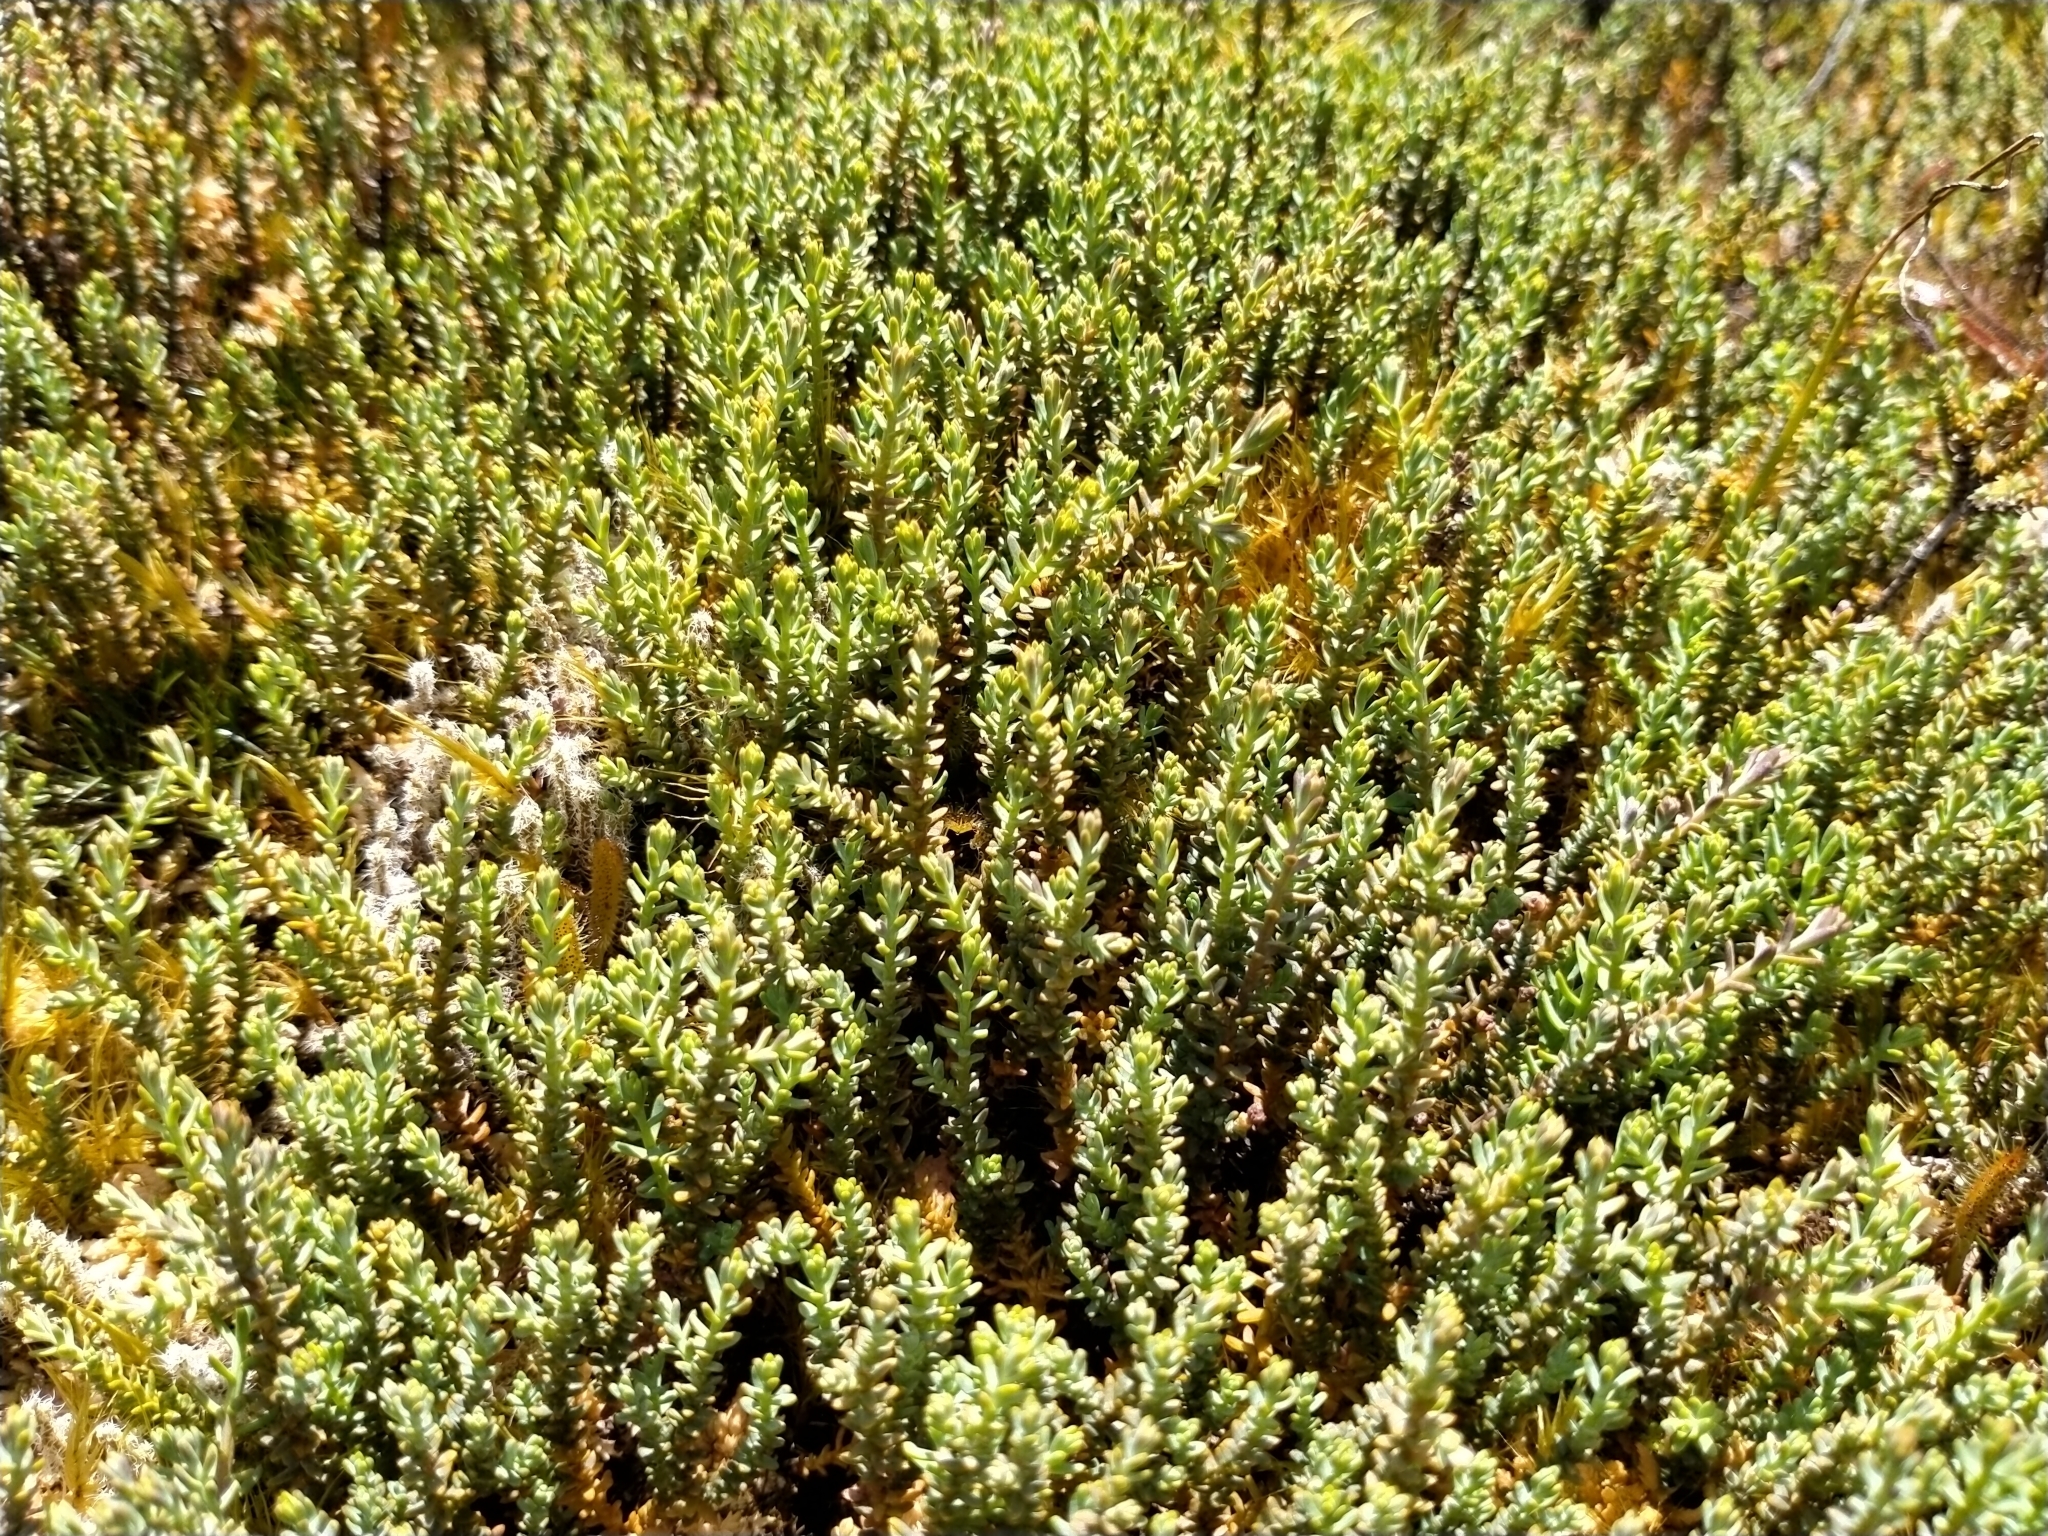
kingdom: Plantae
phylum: Tracheophyta
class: Pinopsida
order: Pinales
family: Podocarpaceae
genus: Lepidothamnus
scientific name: Lepidothamnus laxifolius
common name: Pygmy pine
